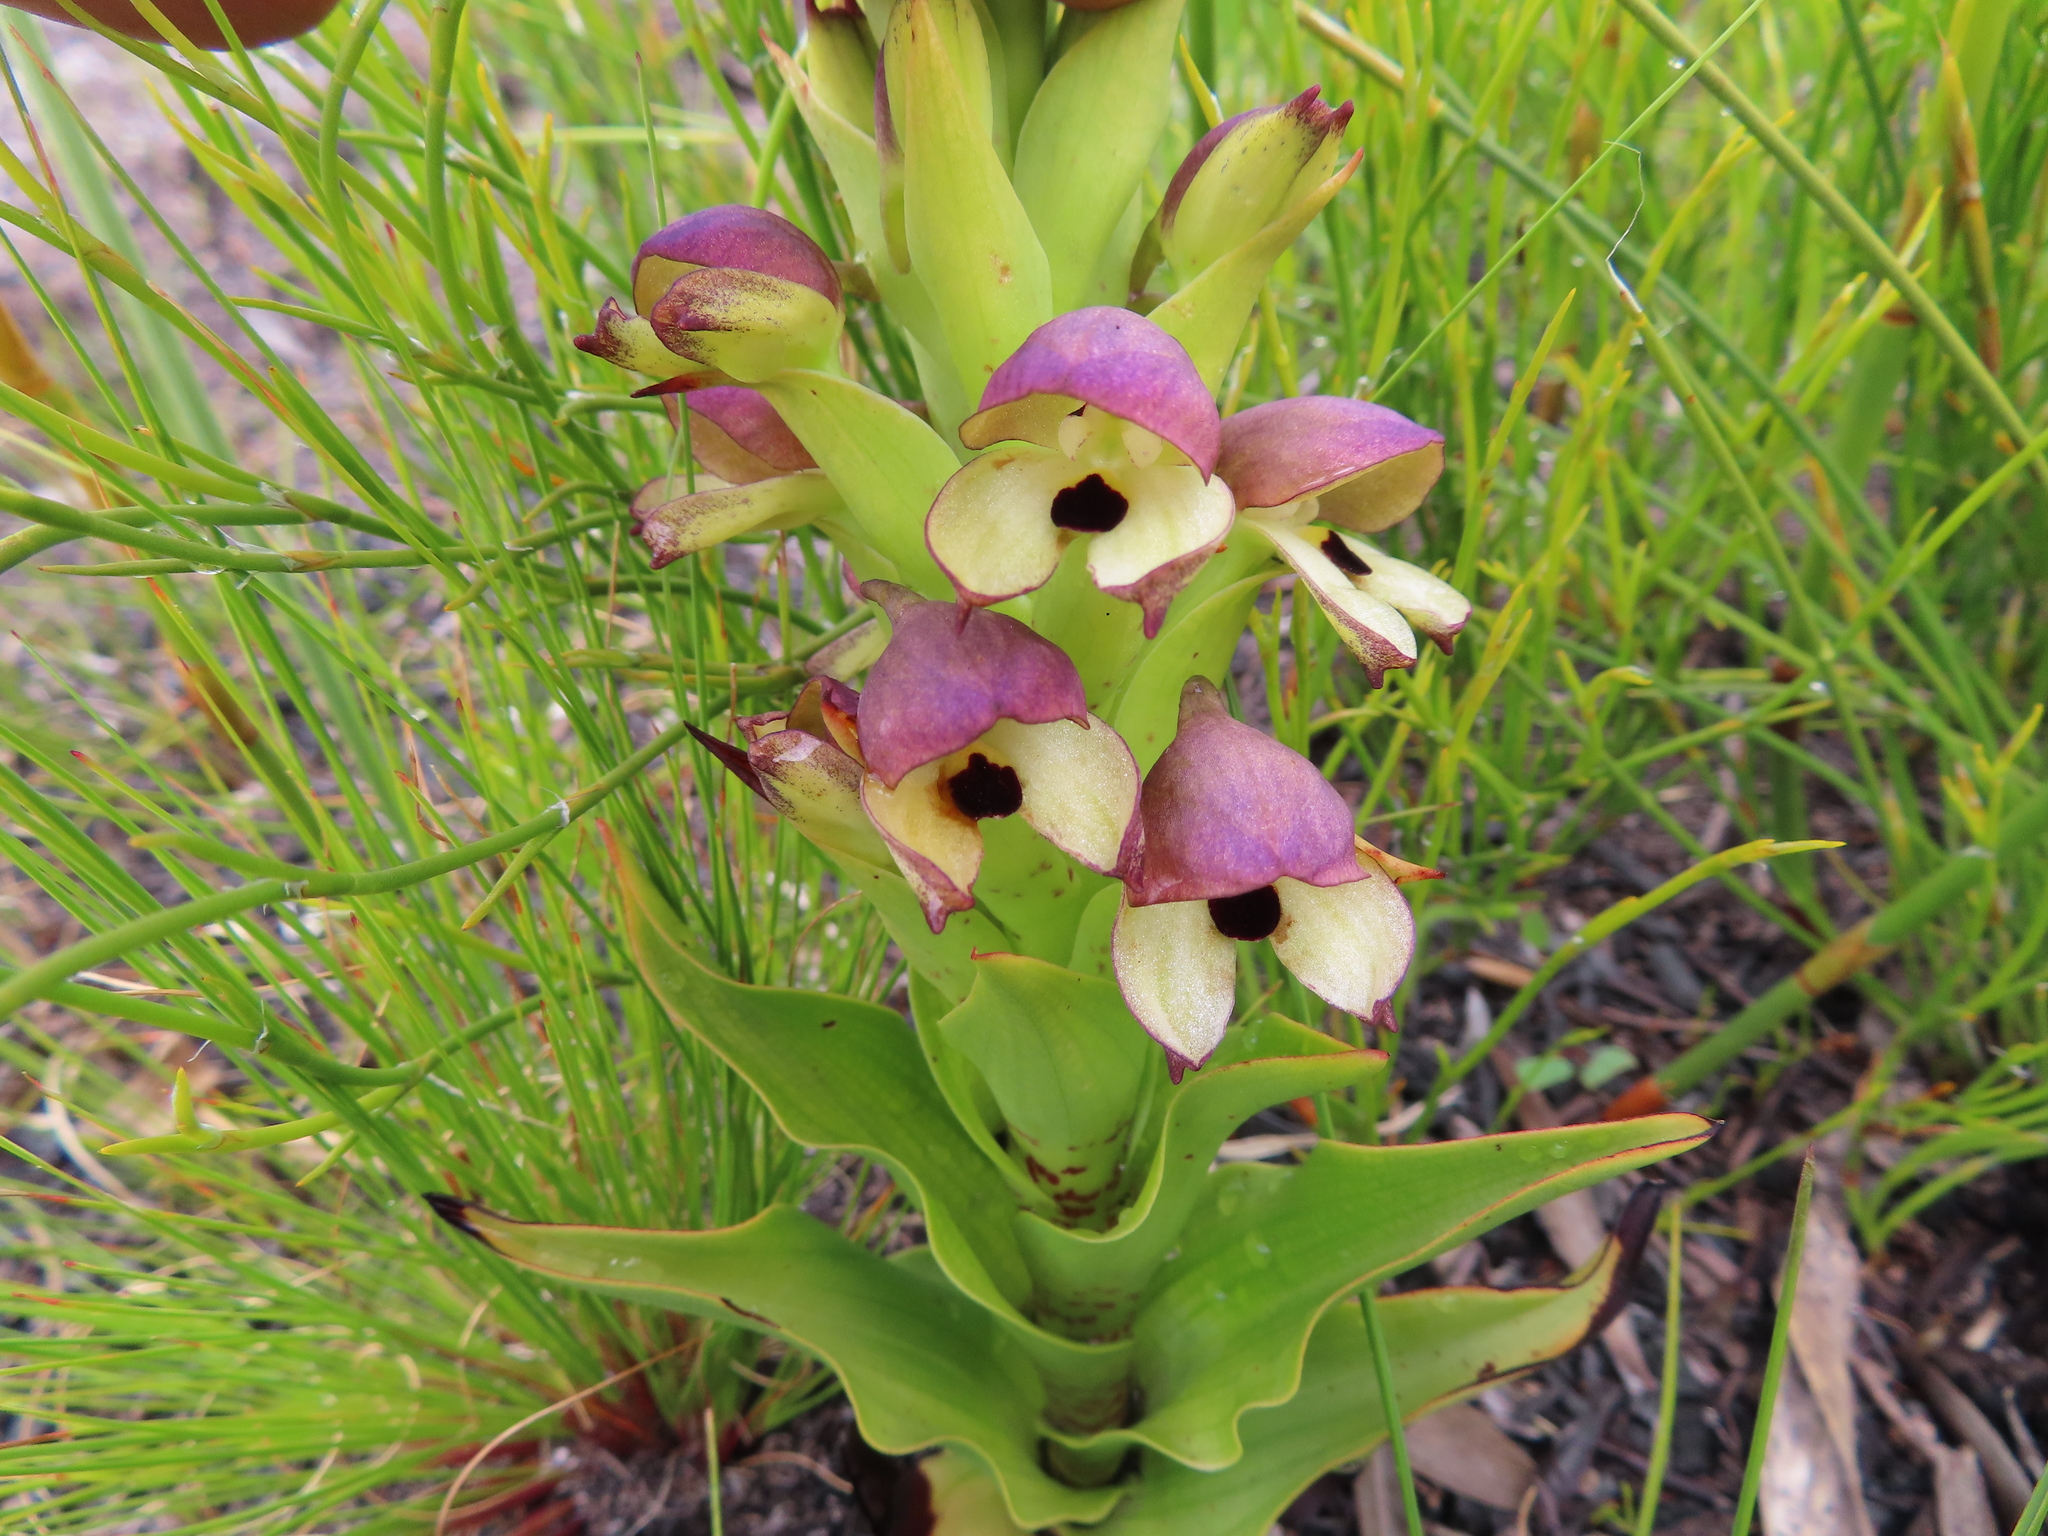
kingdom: Plantae
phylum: Tracheophyta
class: Liliopsida
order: Asparagales
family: Orchidaceae
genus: Disa
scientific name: Disa cornuta
